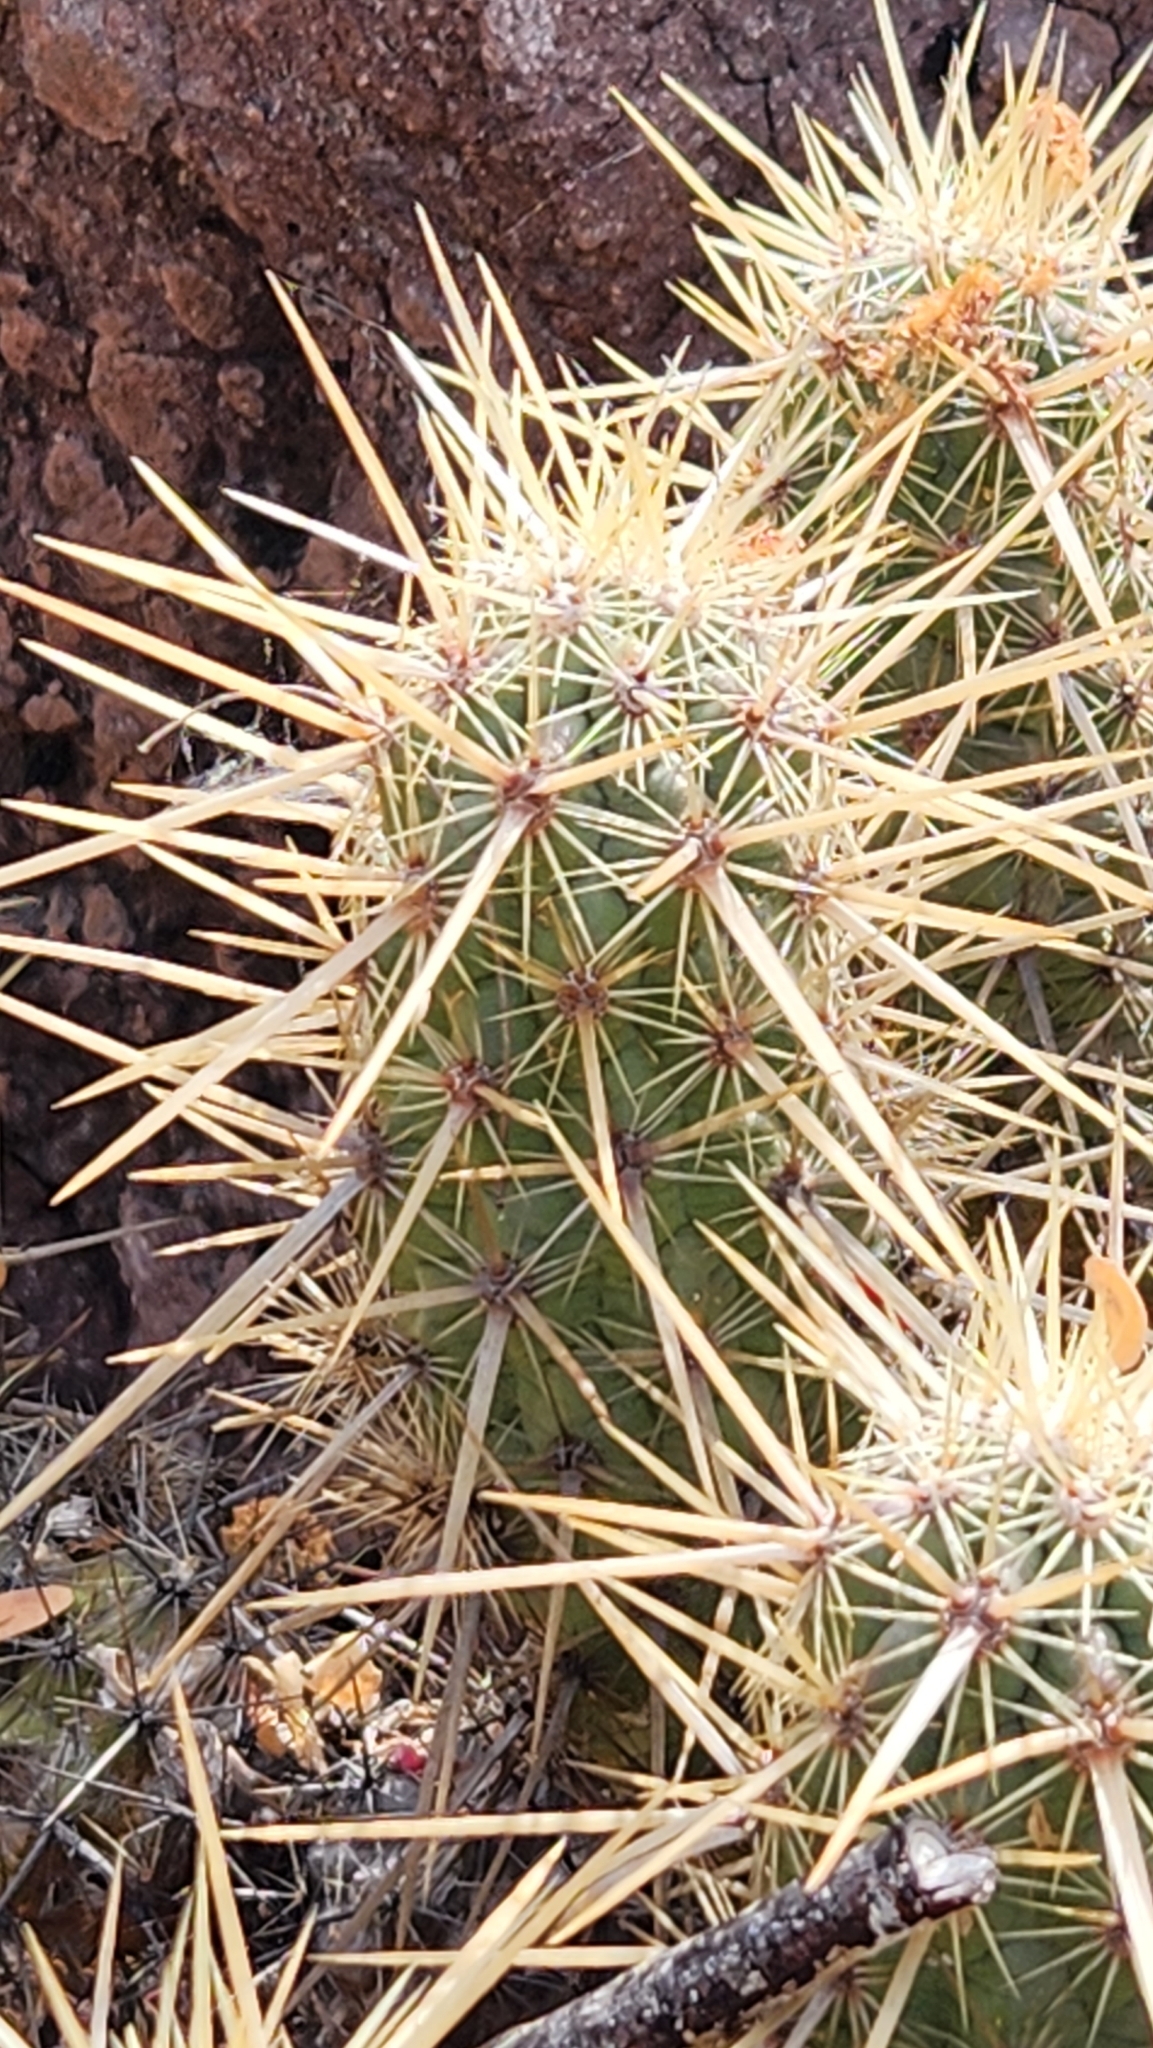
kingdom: Plantae
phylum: Tracheophyta
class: Magnoliopsida
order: Caryophyllales
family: Cactaceae
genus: Echinocereus
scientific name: Echinocereus brandegeei
